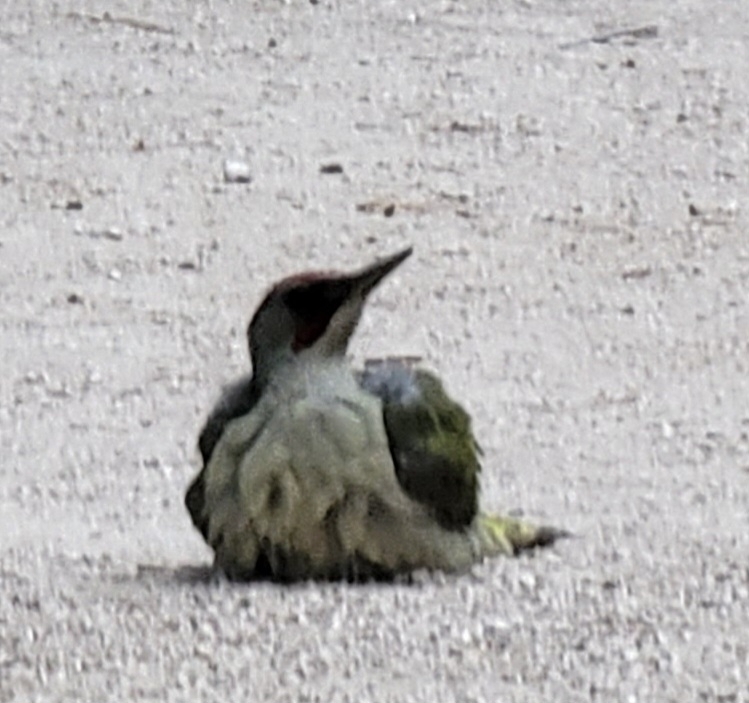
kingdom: Animalia
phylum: Chordata
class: Aves
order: Piciformes
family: Picidae
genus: Picus
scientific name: Picus sharpei
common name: Iberian green woodpecker
